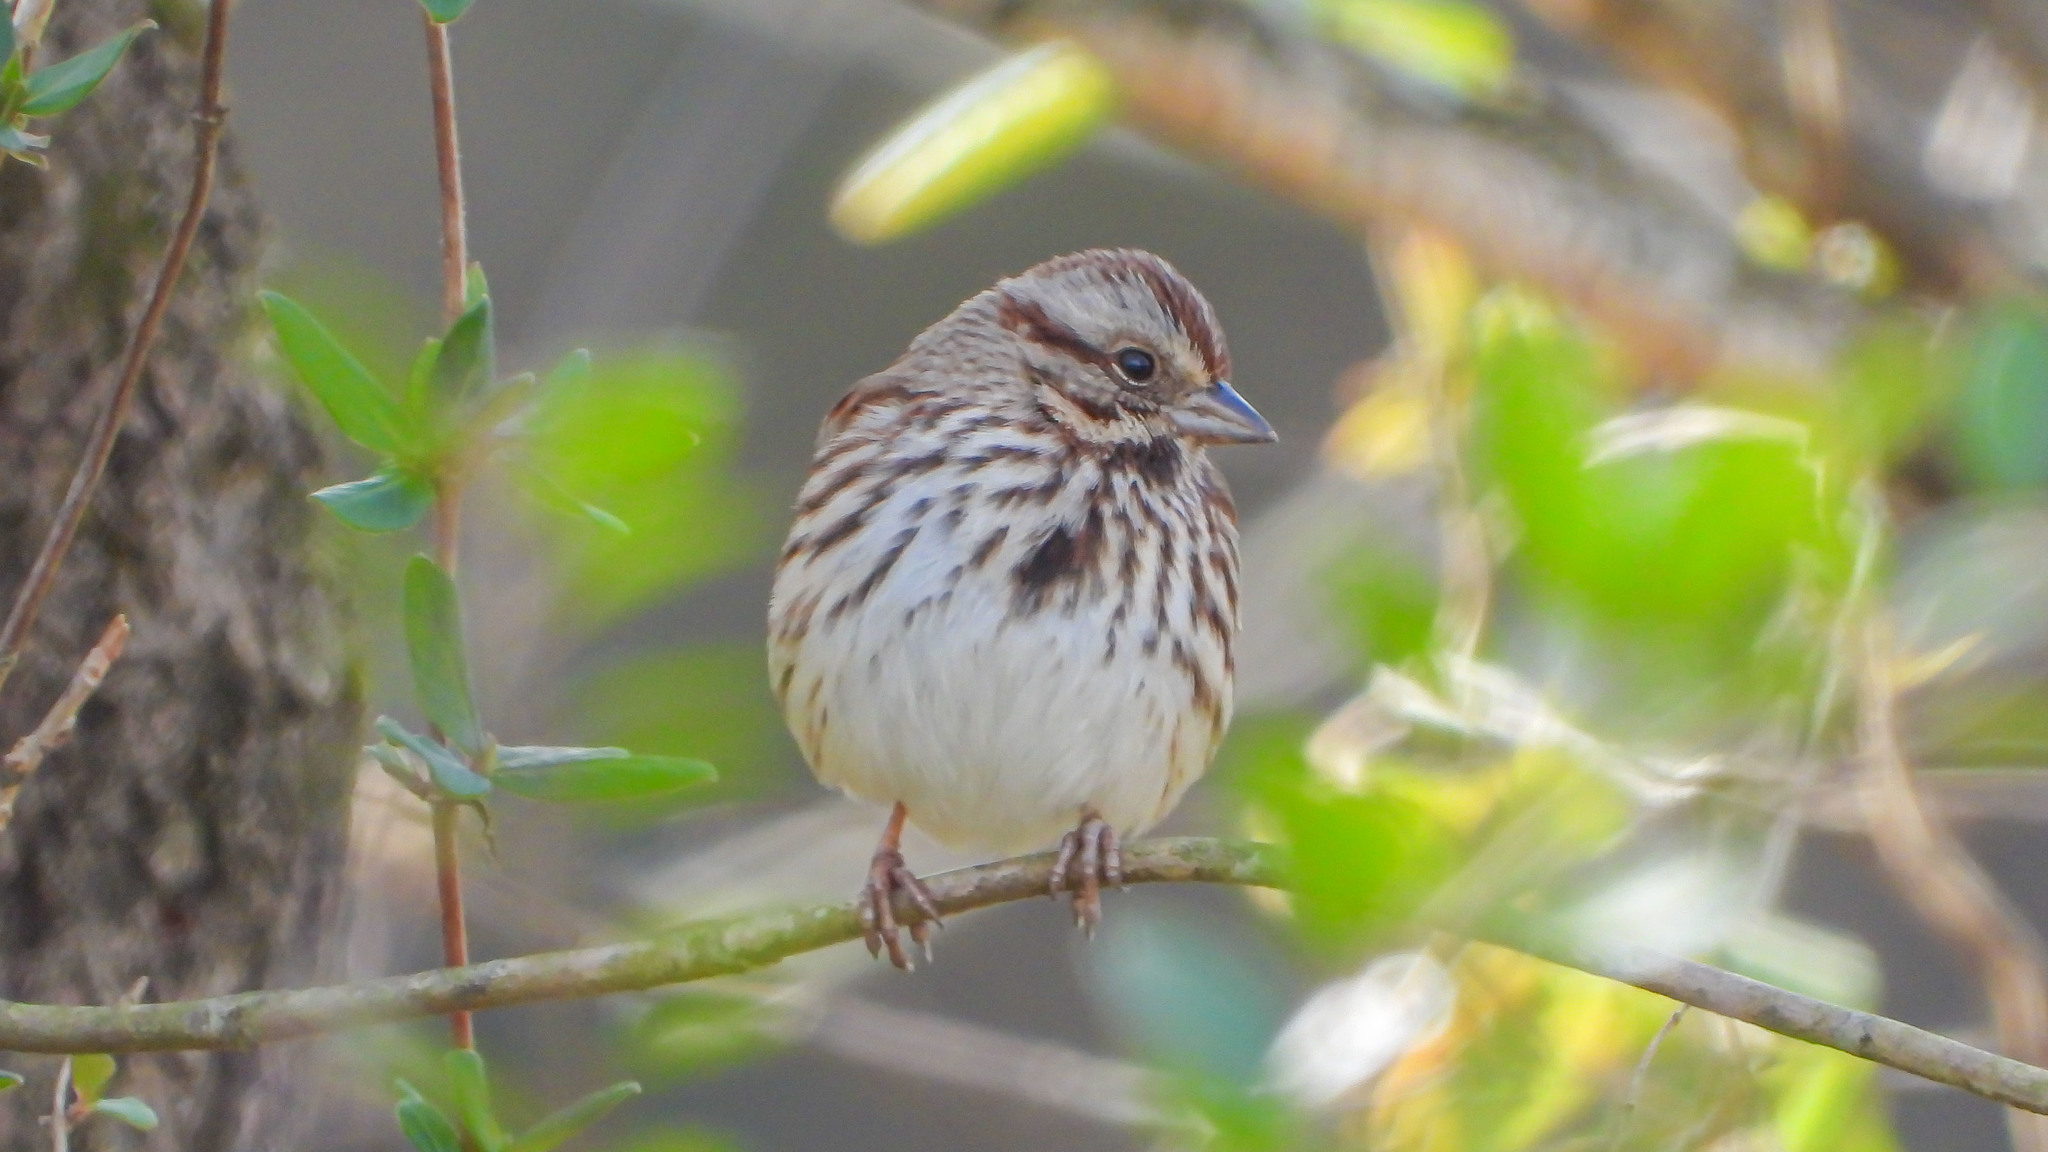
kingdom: Animalia
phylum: Chordata
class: Aves
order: Passeriformes
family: Passerellidae
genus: Melospiza
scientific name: Melospiza melodia
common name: Song sparrow
